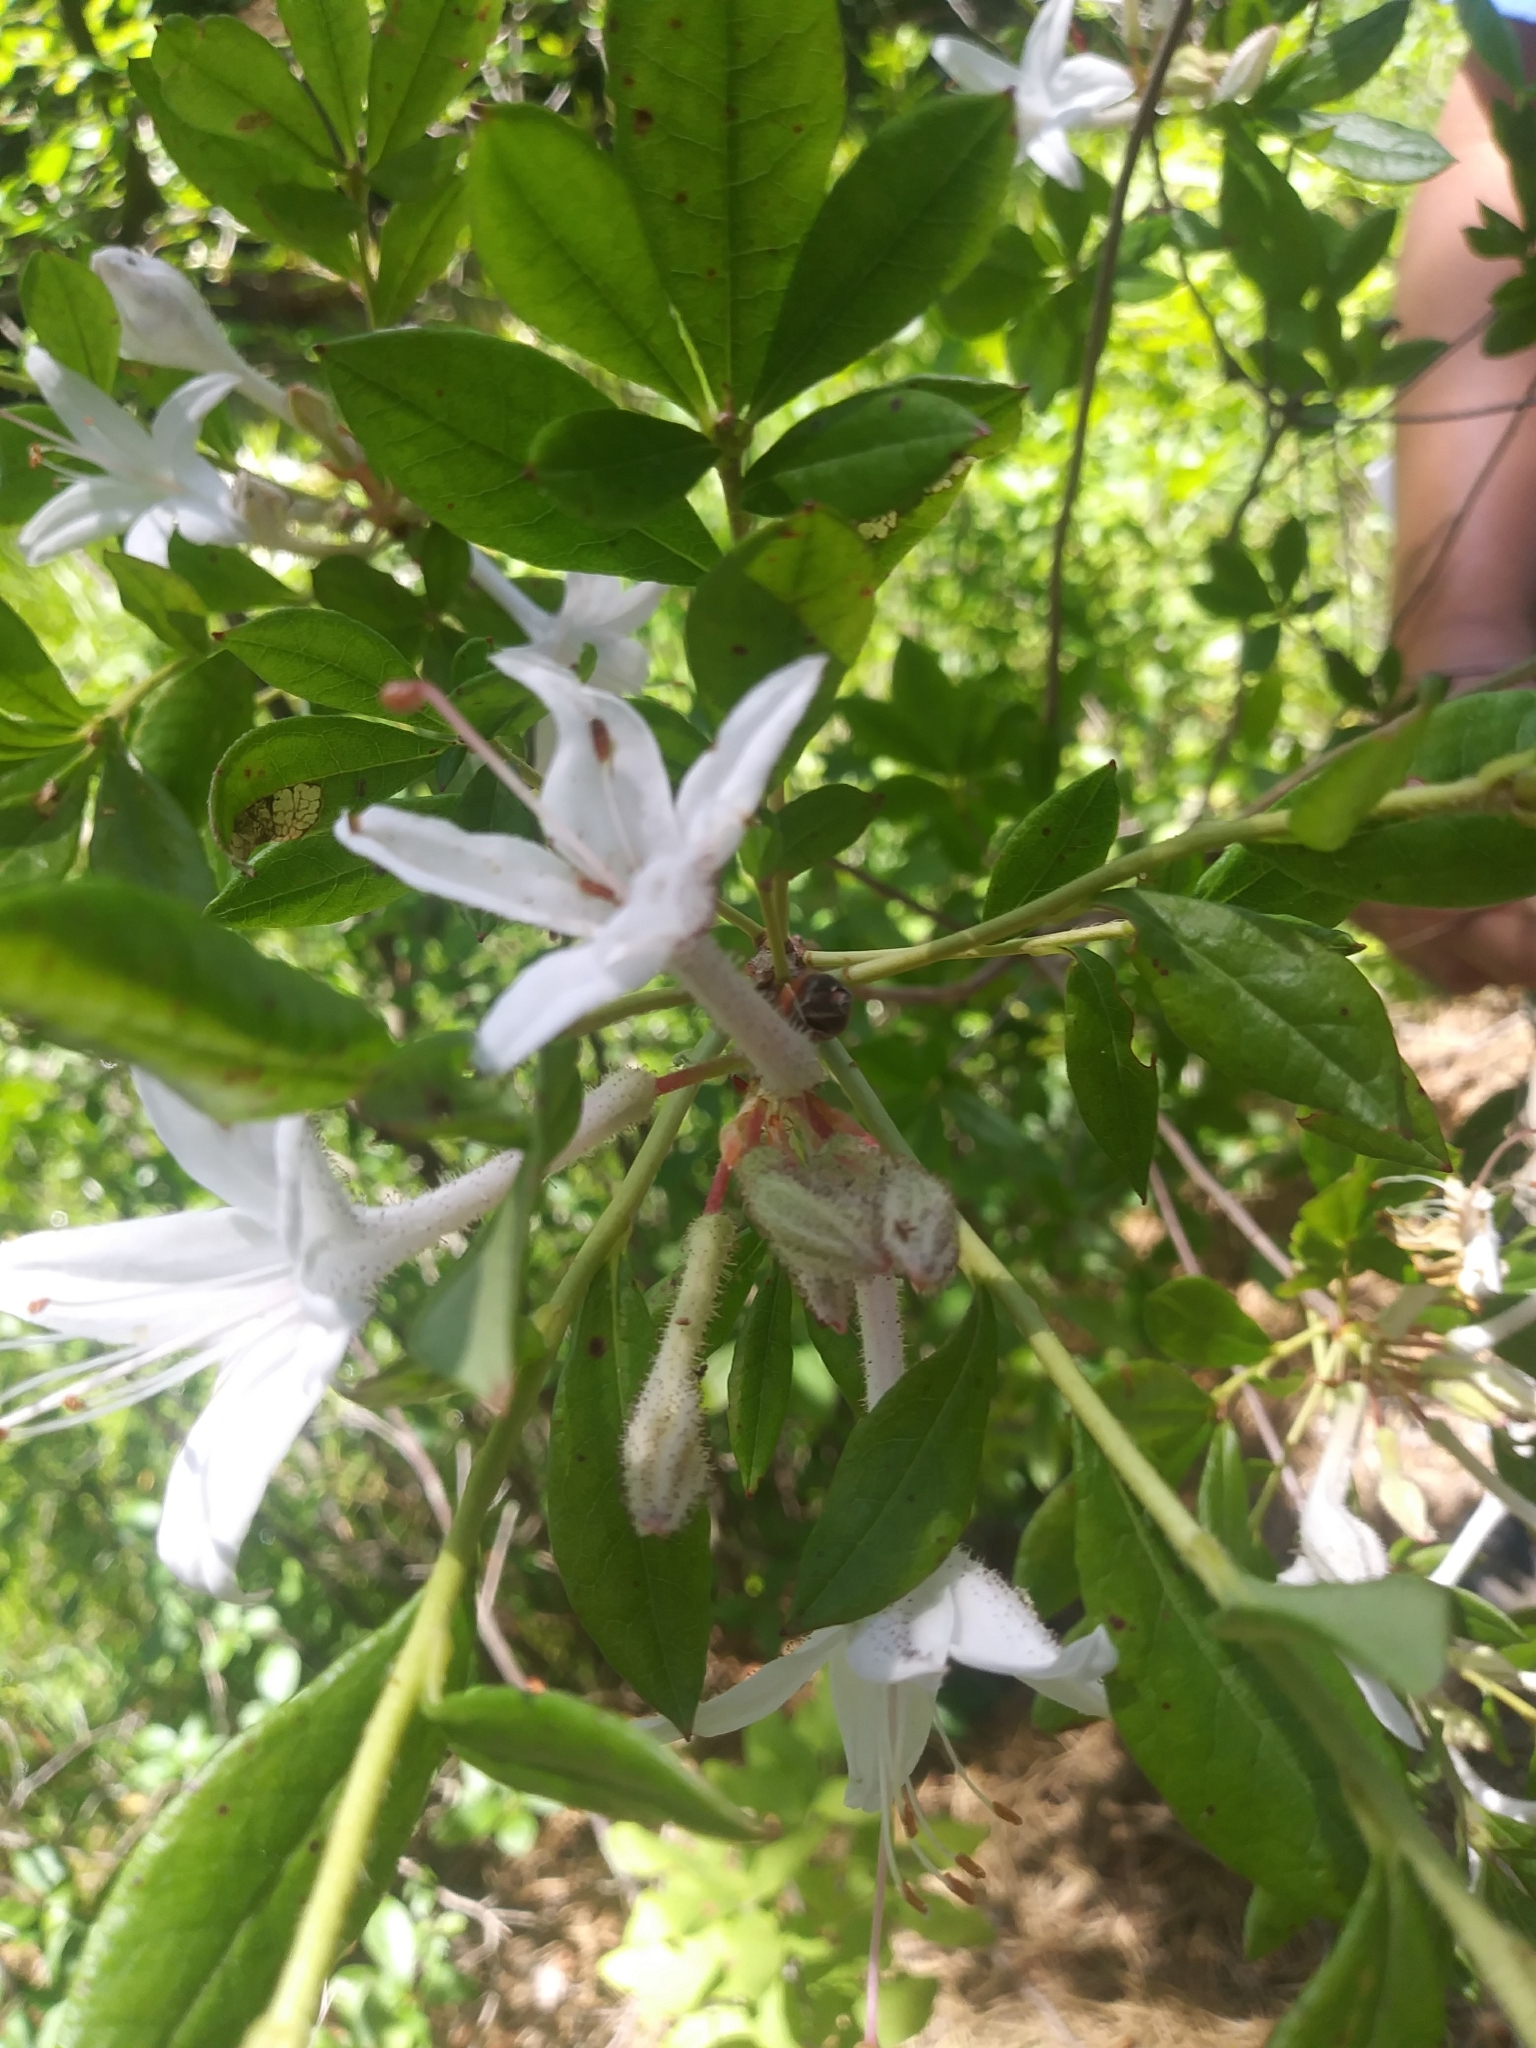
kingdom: Plantae
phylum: Tracheophyta
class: Magnoliopsida
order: Ericales
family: Ericaceae
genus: Rhododendron
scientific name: Rhododendron viscosum
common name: Clammy azalea
